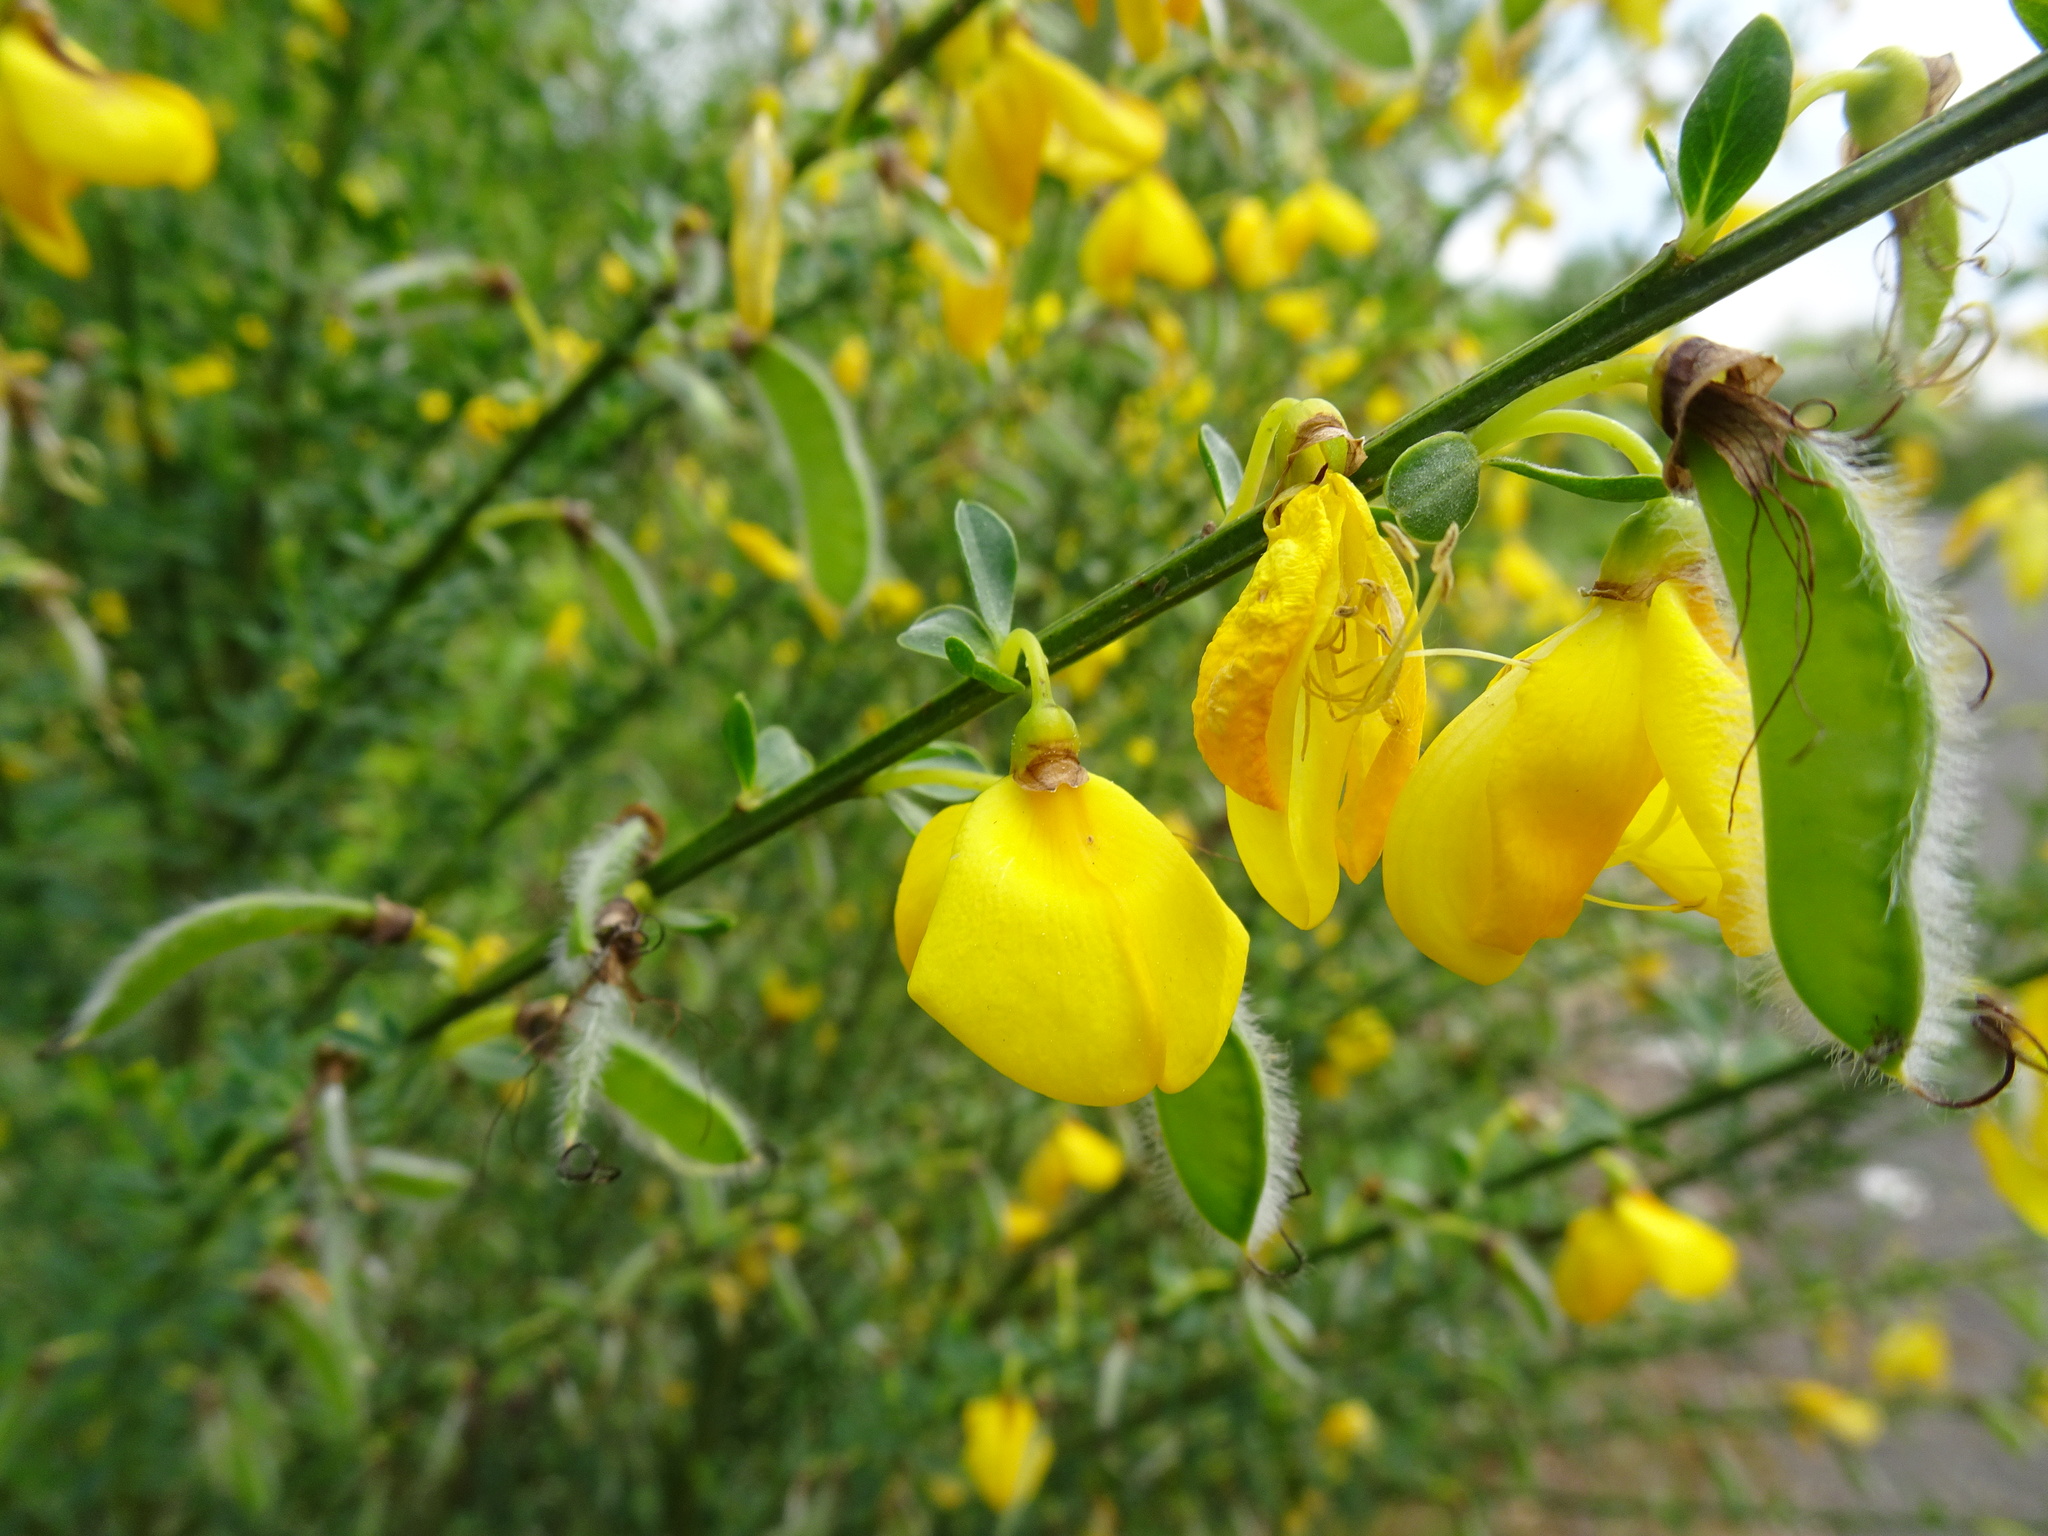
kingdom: Plantae
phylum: Tracheophyta
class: Magnoliopsida
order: Fabales
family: Fabaceae
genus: Cytisus
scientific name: Cytisus scoparius
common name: Scotch broom
